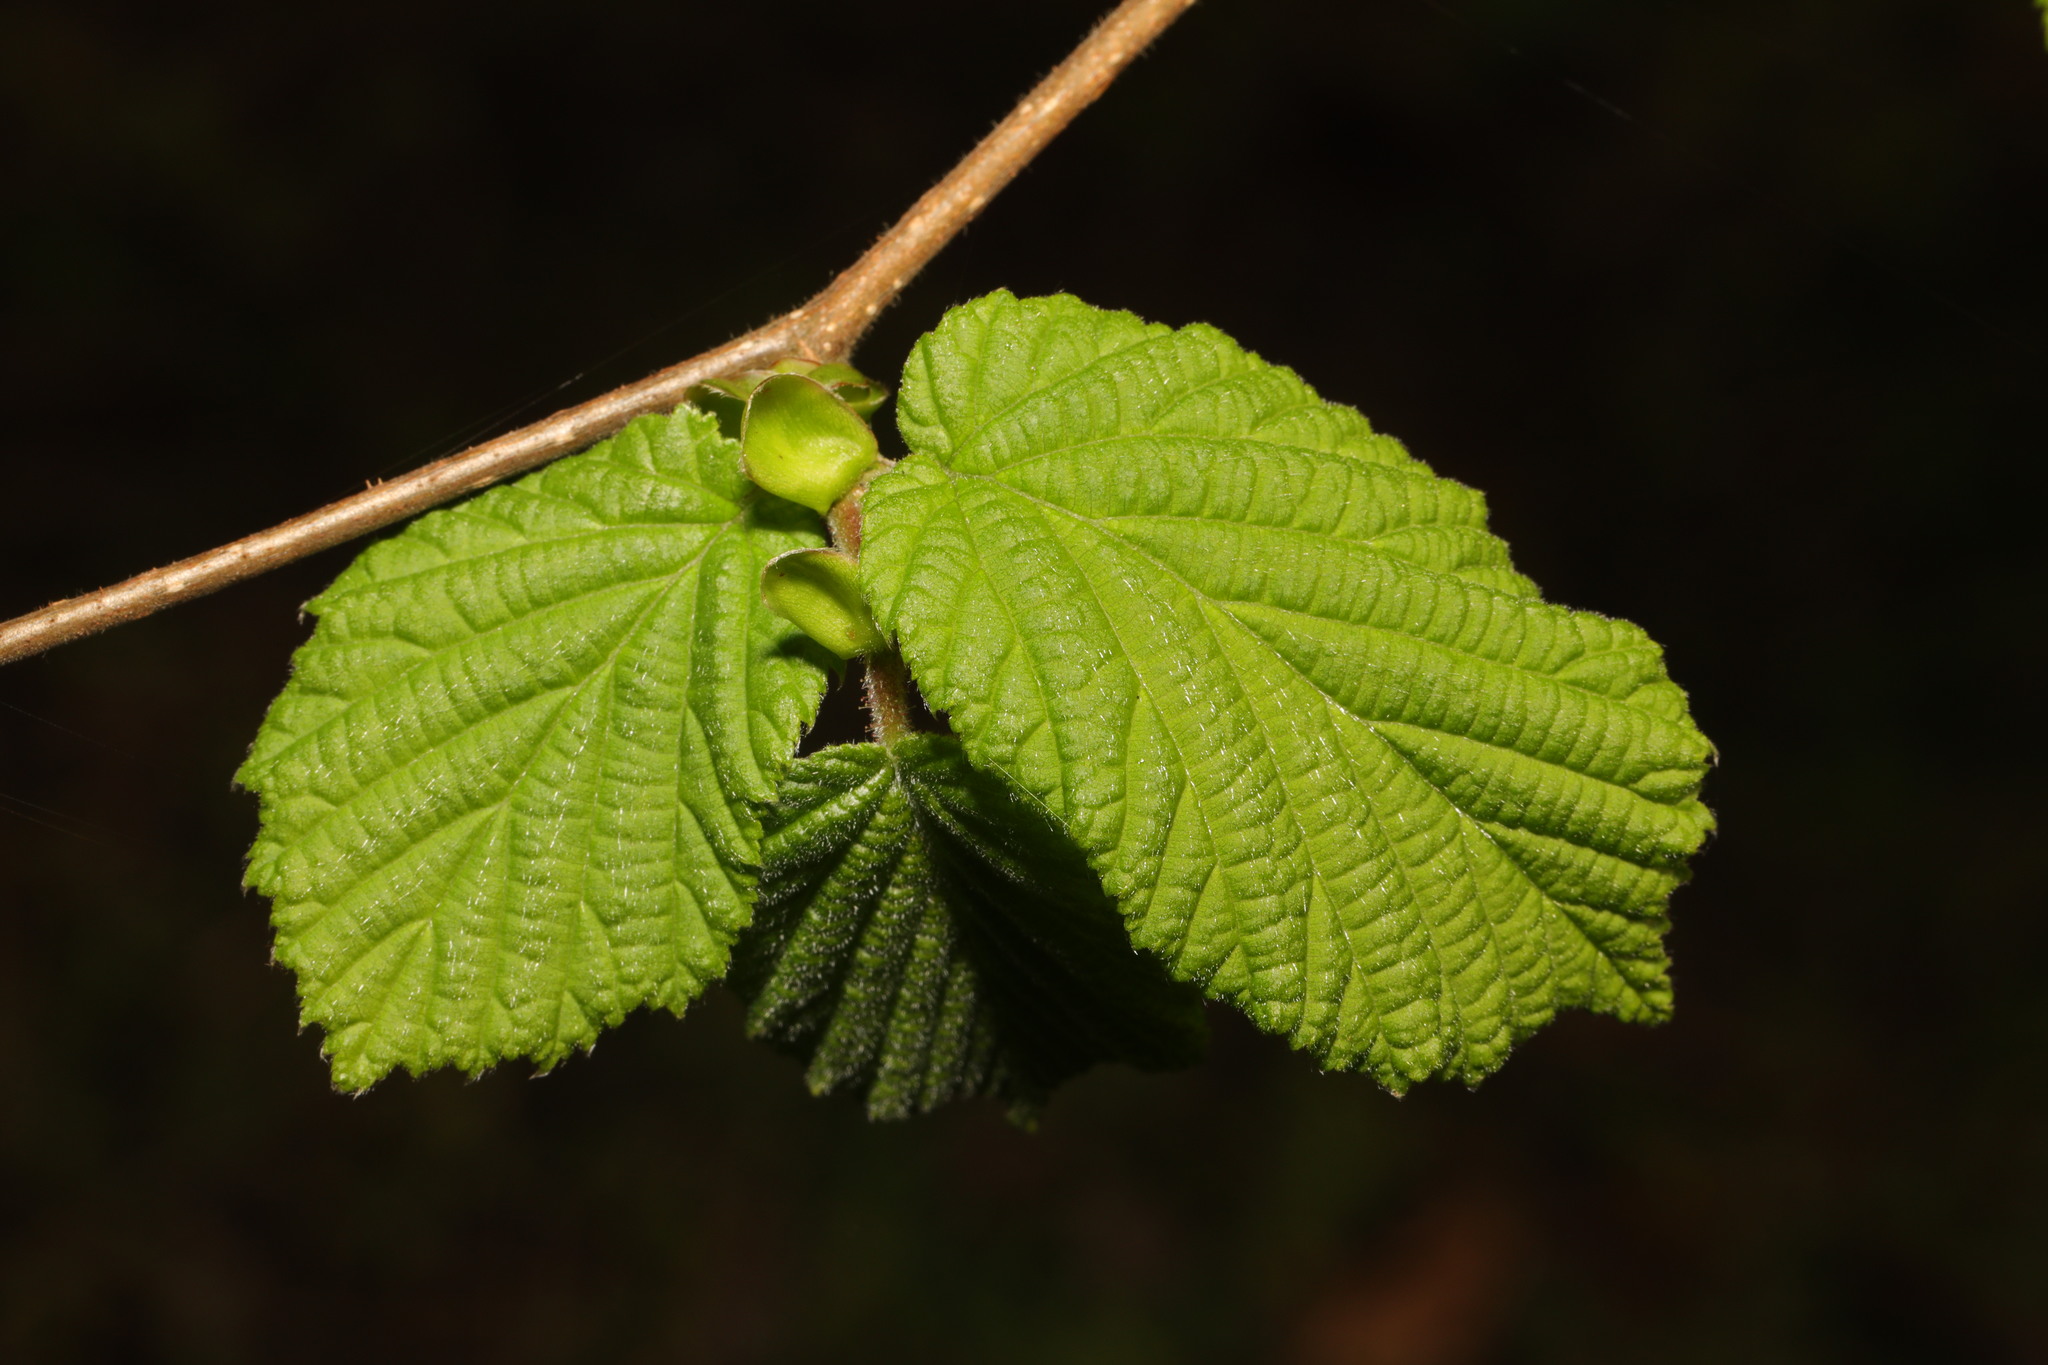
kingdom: Plantae
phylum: Tracheophyta
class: Magnoliopsida
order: Fagales
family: Betulaceae
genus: Corylus
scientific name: Corylus avellana
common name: European hazel
